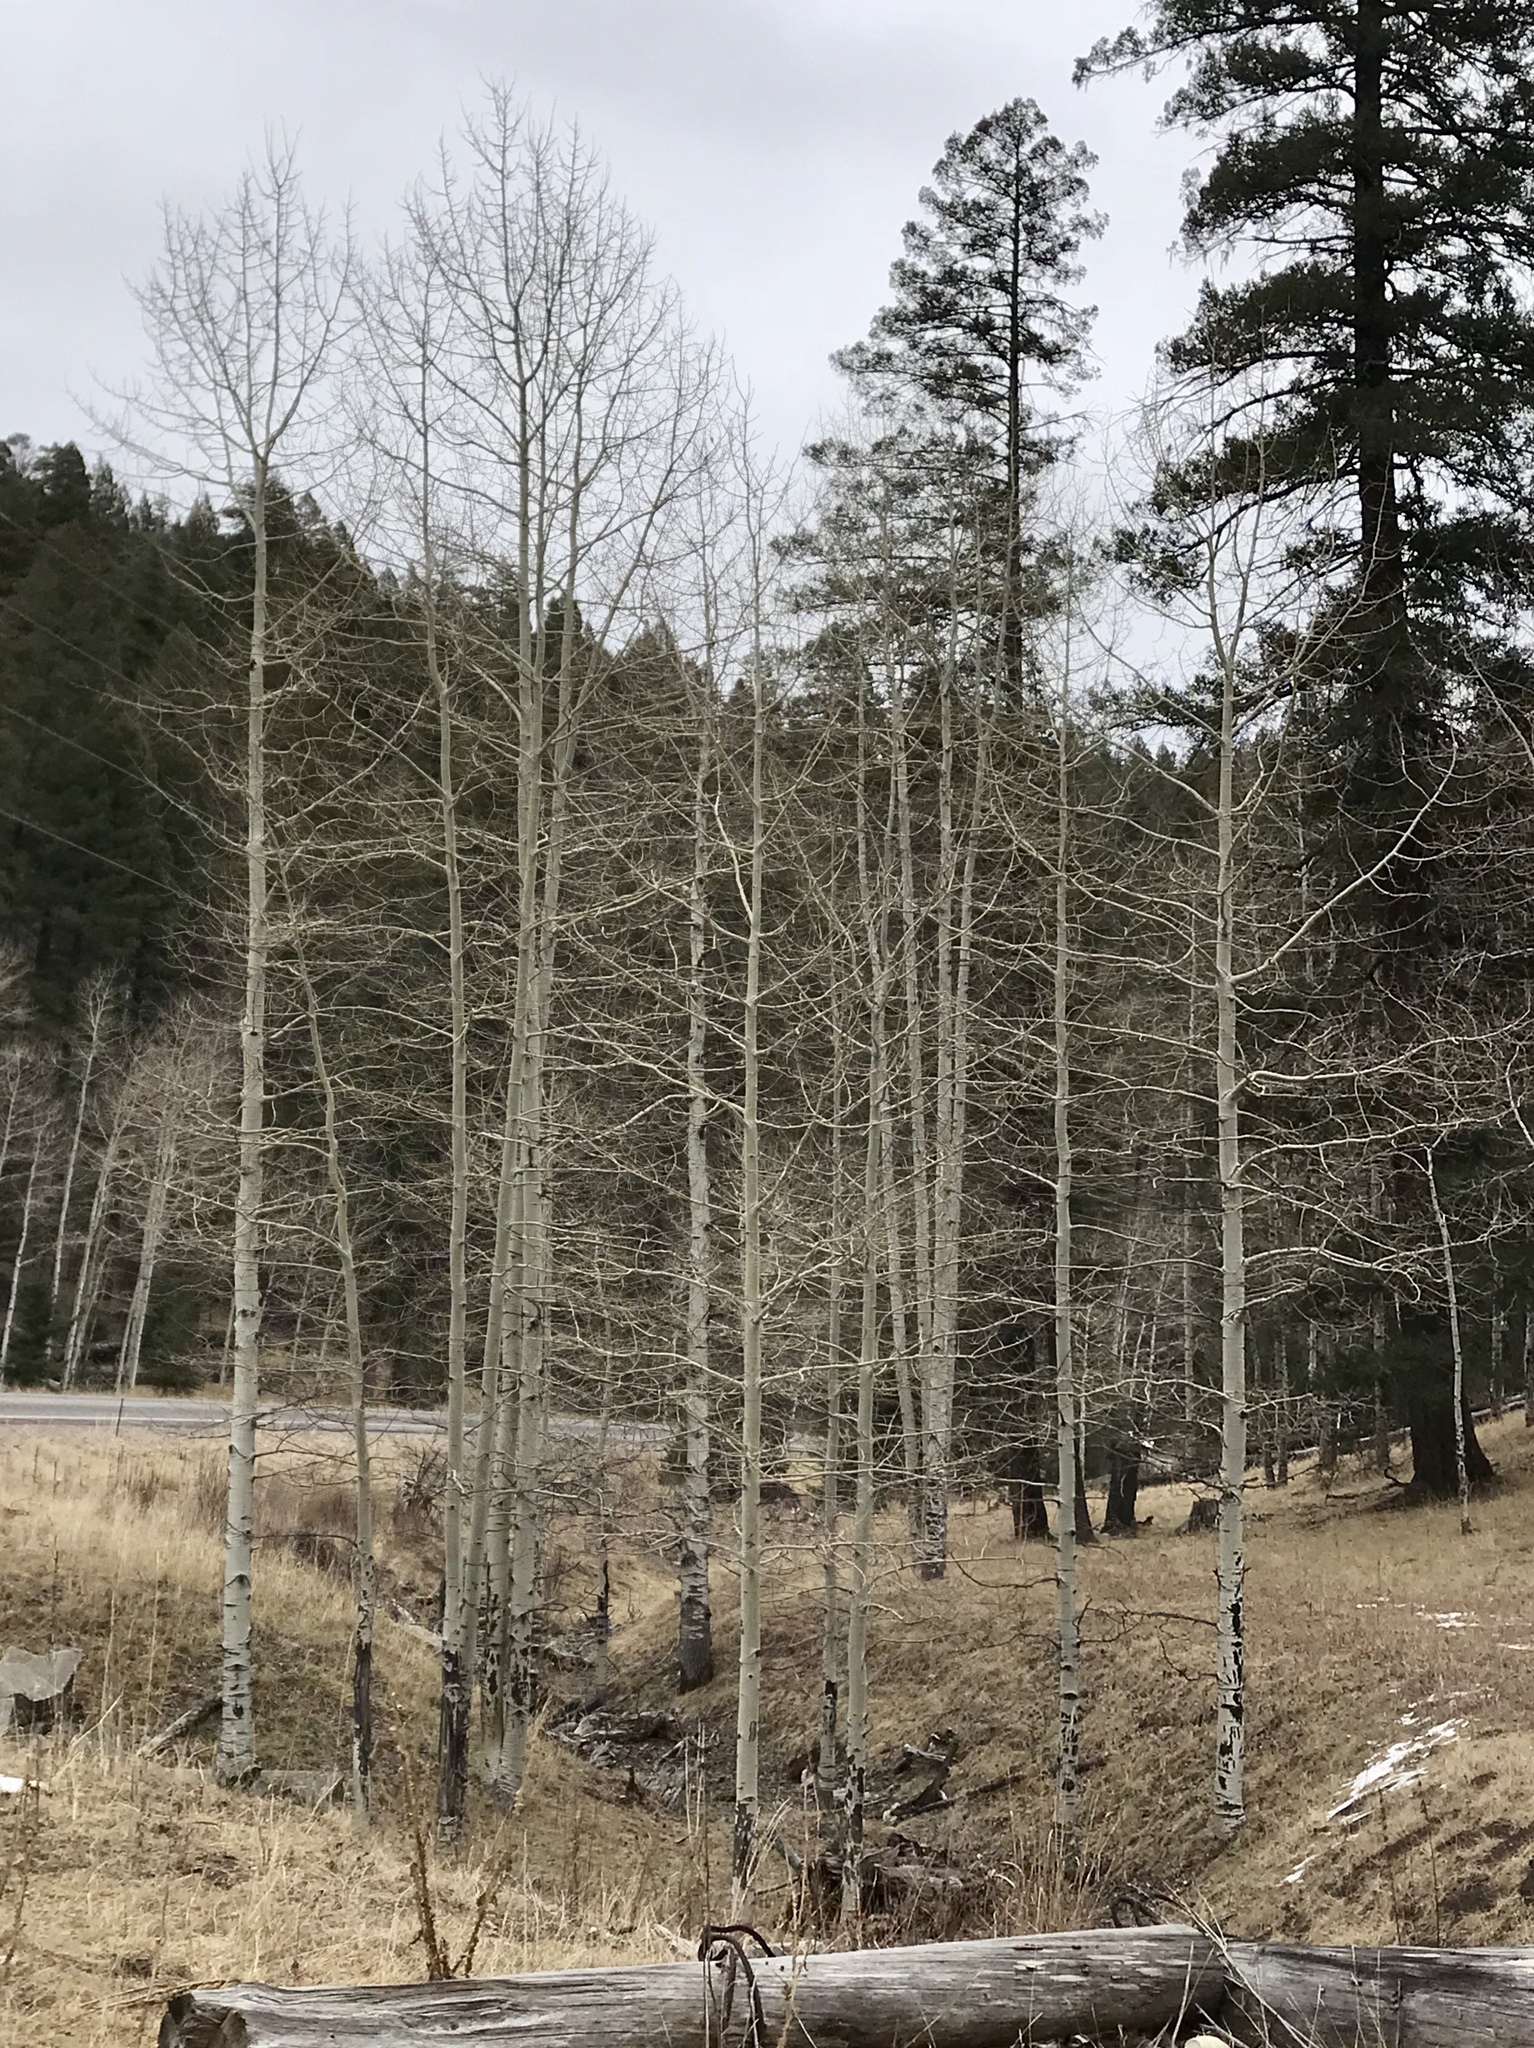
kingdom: Plantae
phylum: Tracheophyta
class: Magnoliopsida
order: Malpighiales
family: Salicaceae
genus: Populus
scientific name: Populus tremuloides
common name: Quaking aspen
